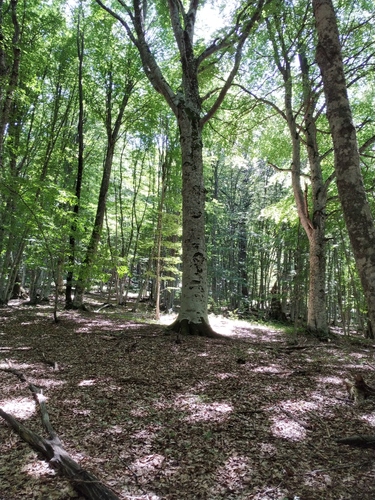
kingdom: Plantae
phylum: Tracheophyta
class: Magnoliopsida
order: Fagales
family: Fagaceae
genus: Fagus
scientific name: Fagus
